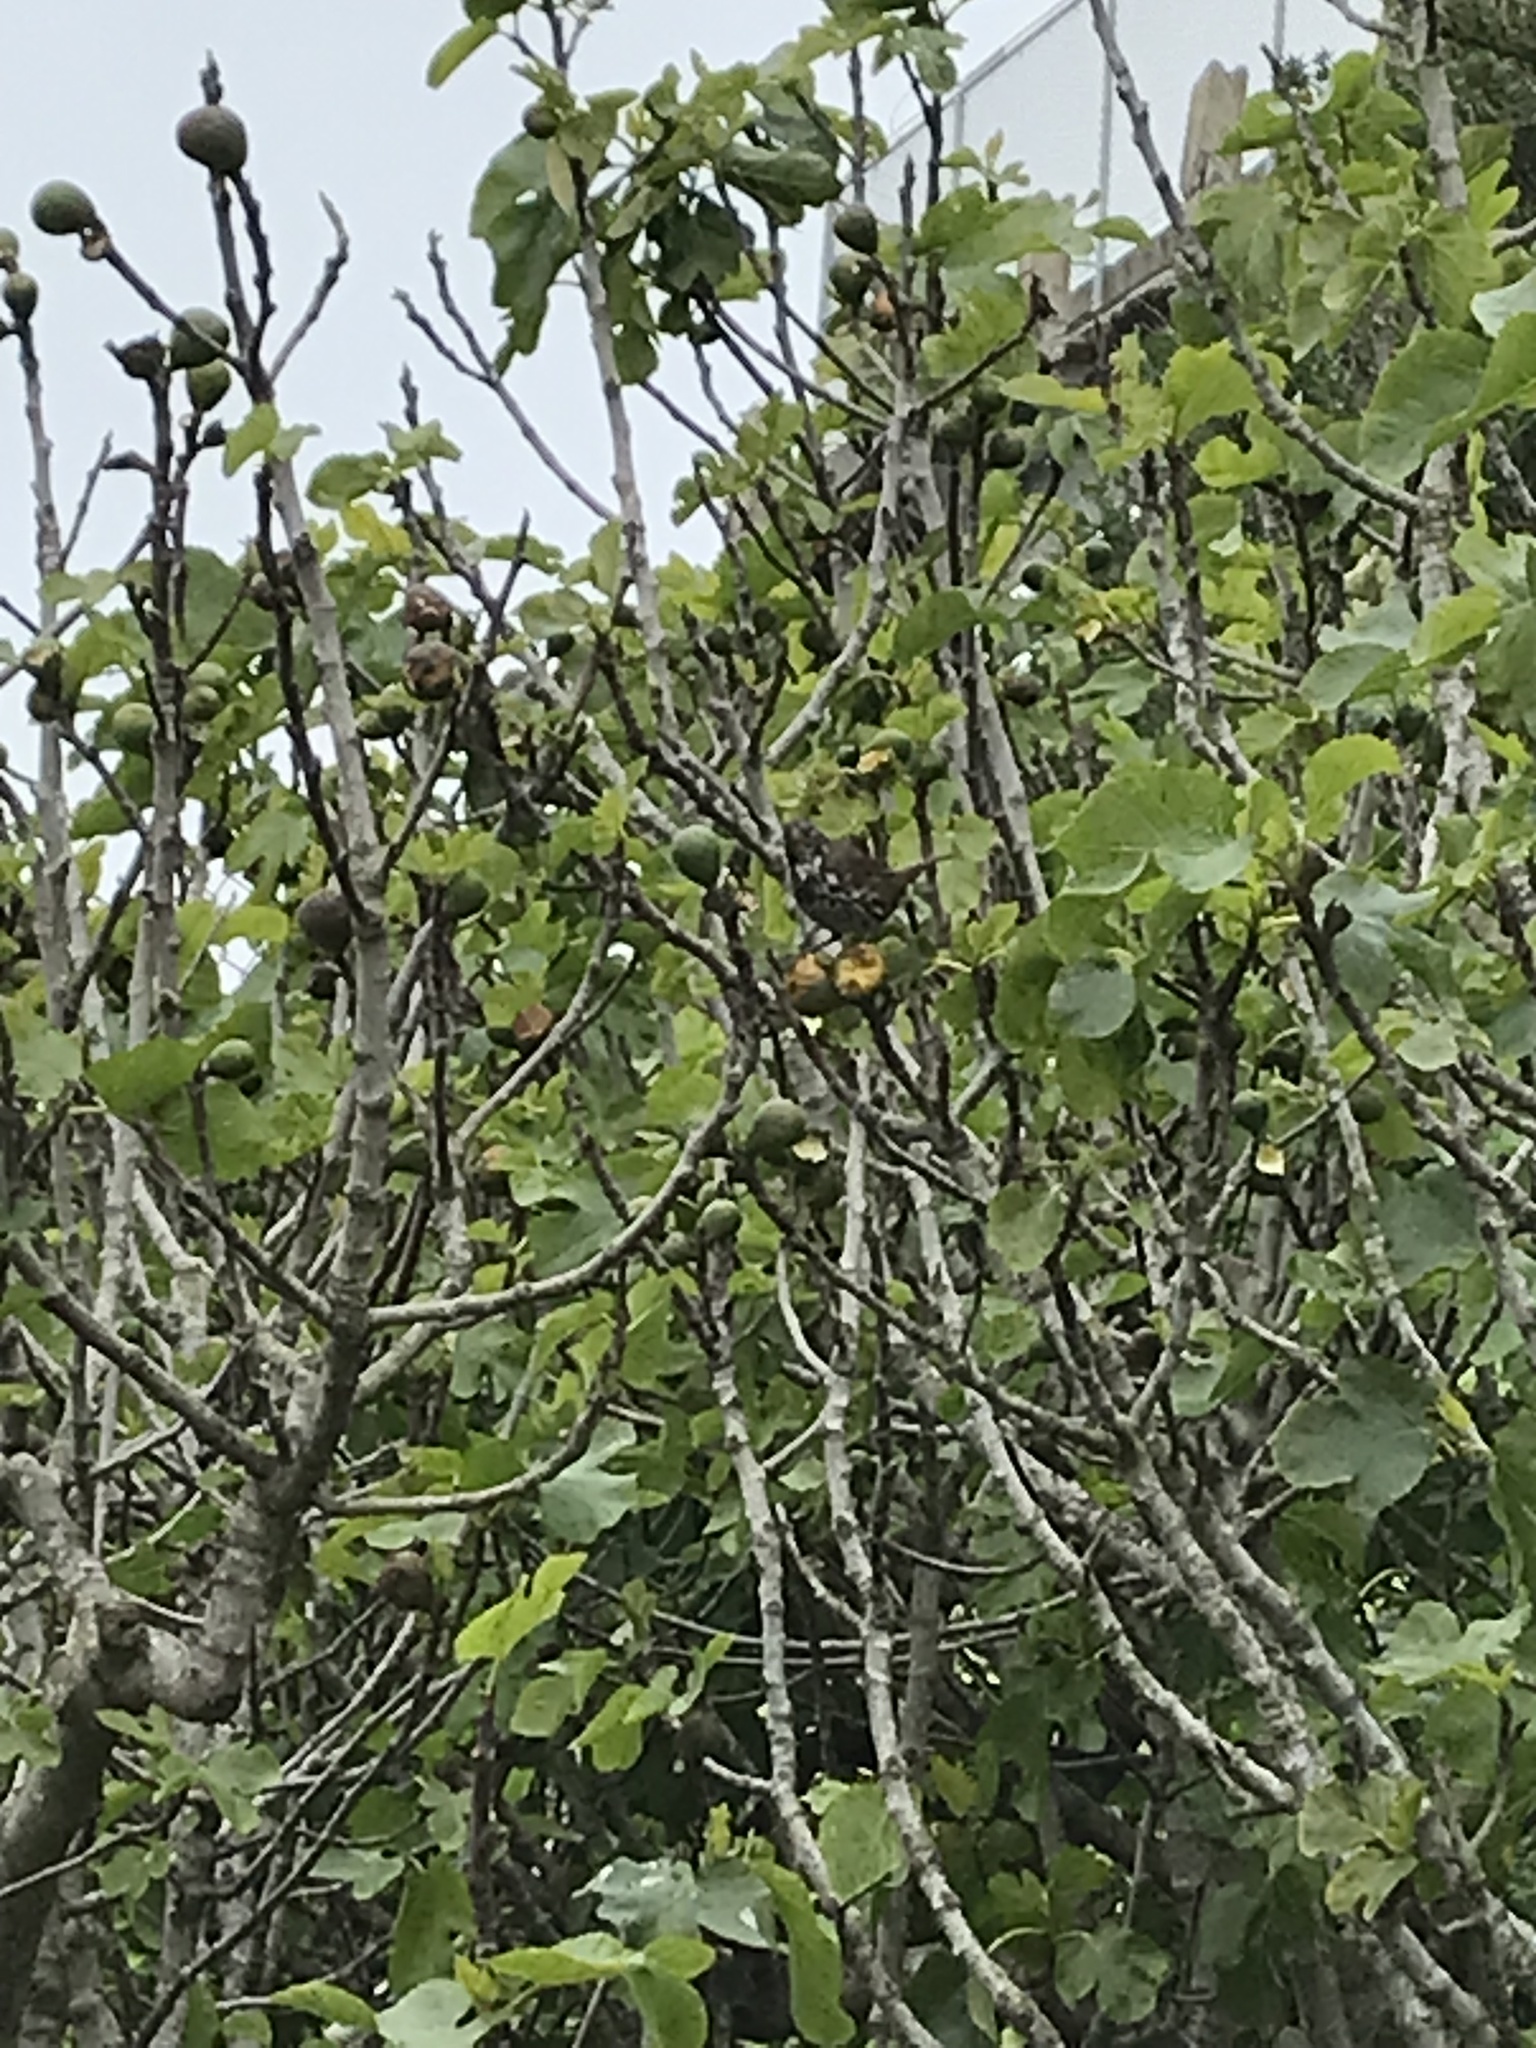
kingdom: Animalia
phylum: Chordata
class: Aves
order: Passeriformes
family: Passerellidae
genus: Passerella
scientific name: Passerella iliaca
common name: Fox sparrow
